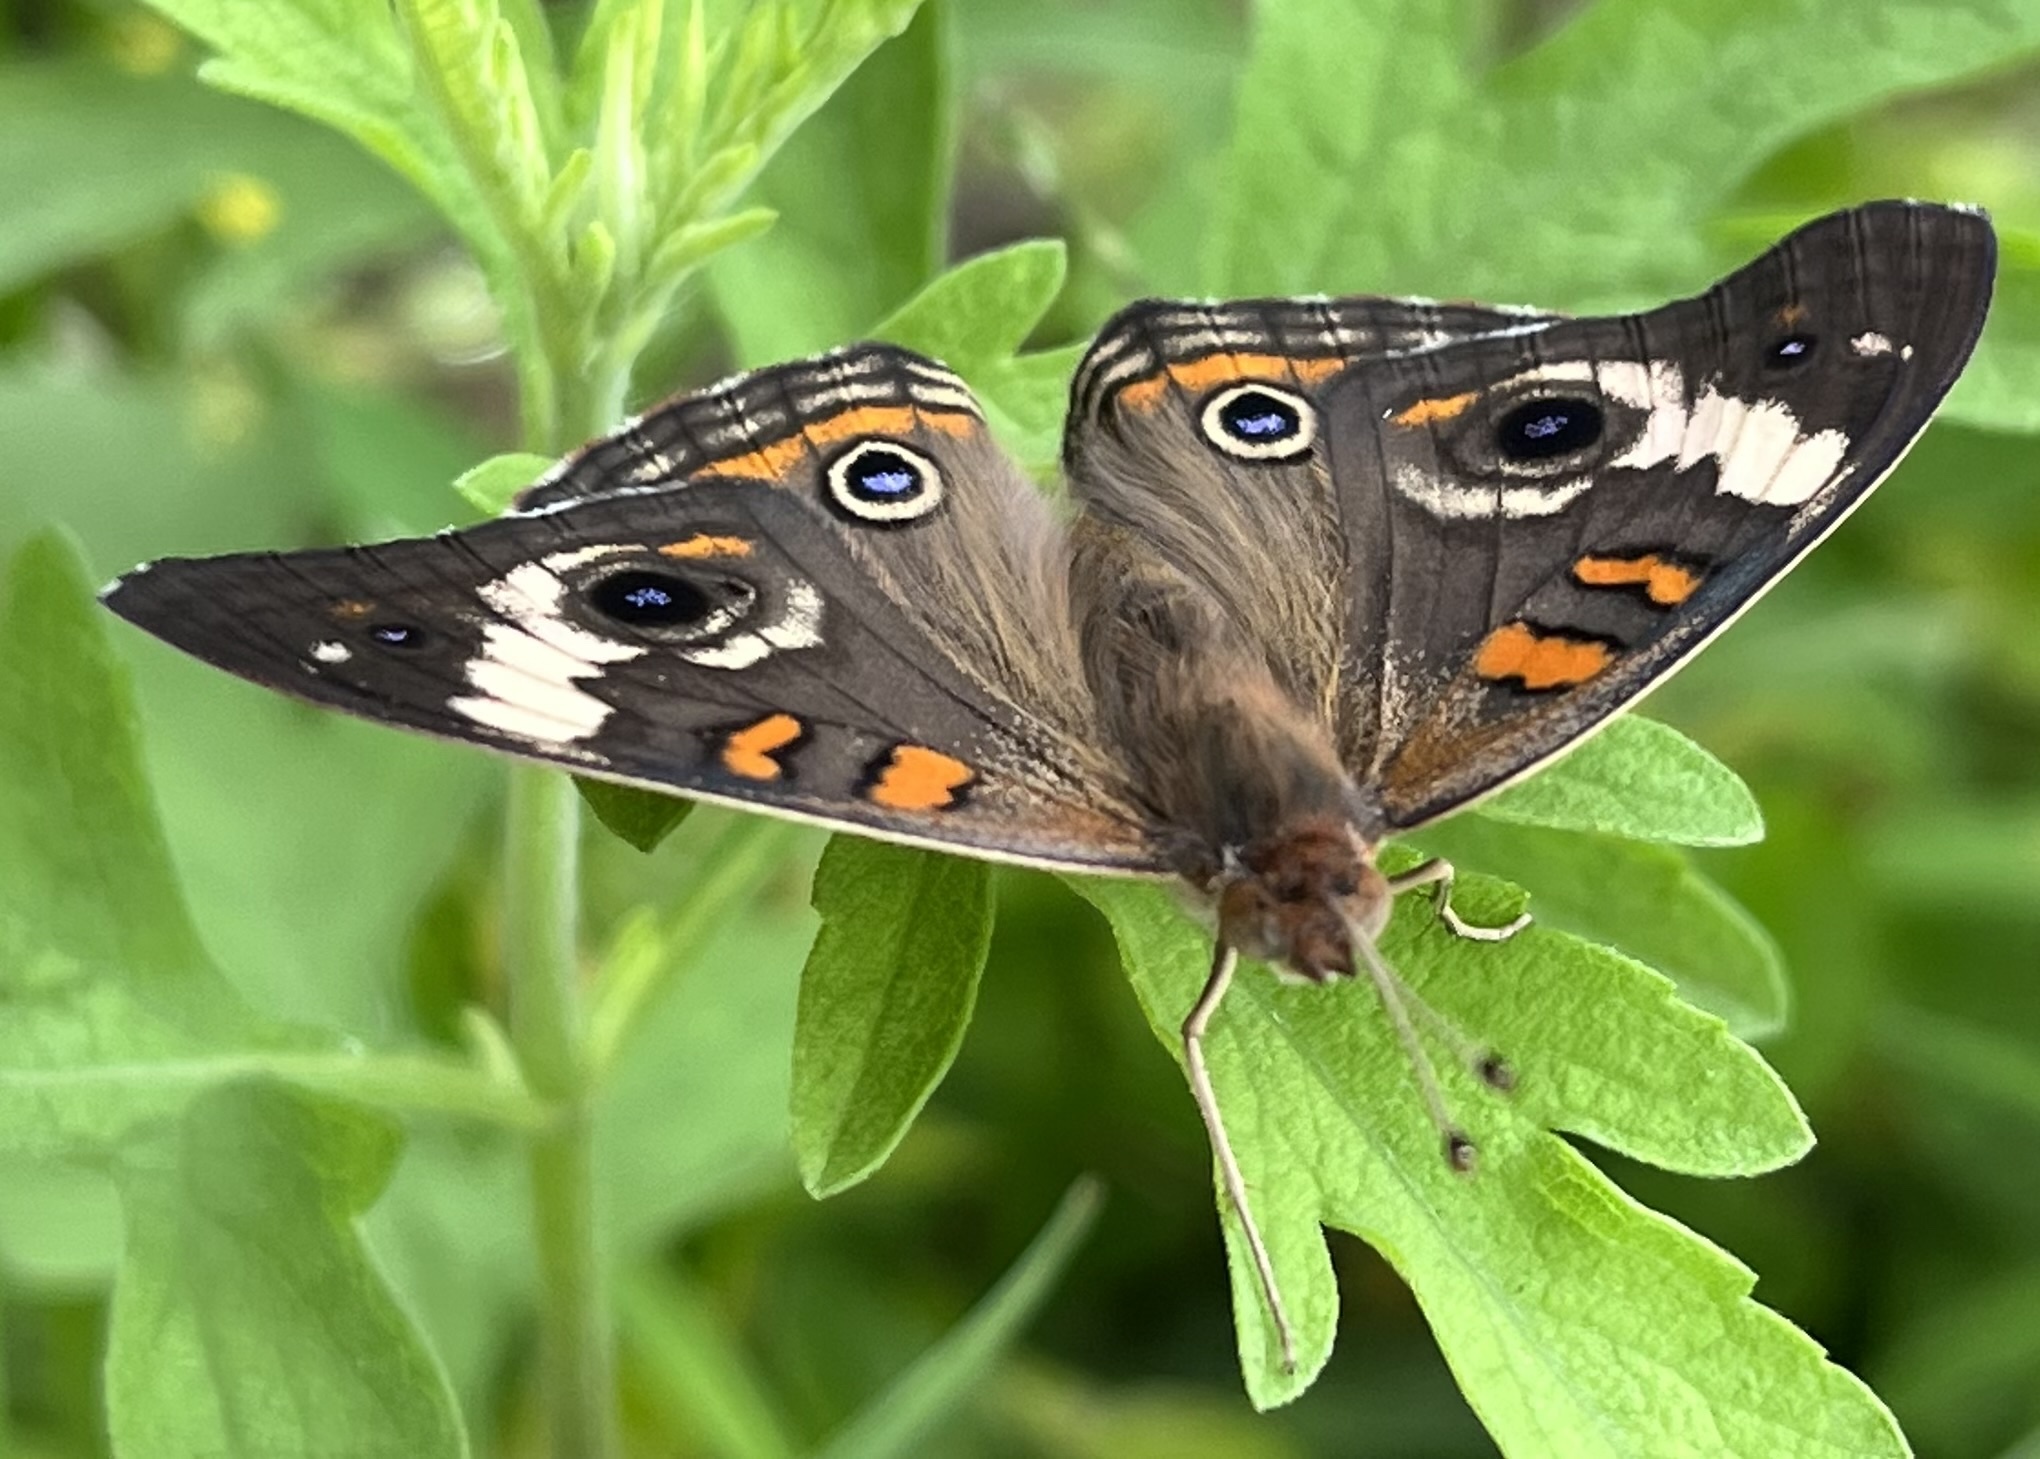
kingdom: Animalia
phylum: Arthropoda
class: Insecta
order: Lepidoptera
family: Nymphalidae
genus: Junonia
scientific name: Junonia coenia
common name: Common buckeye
